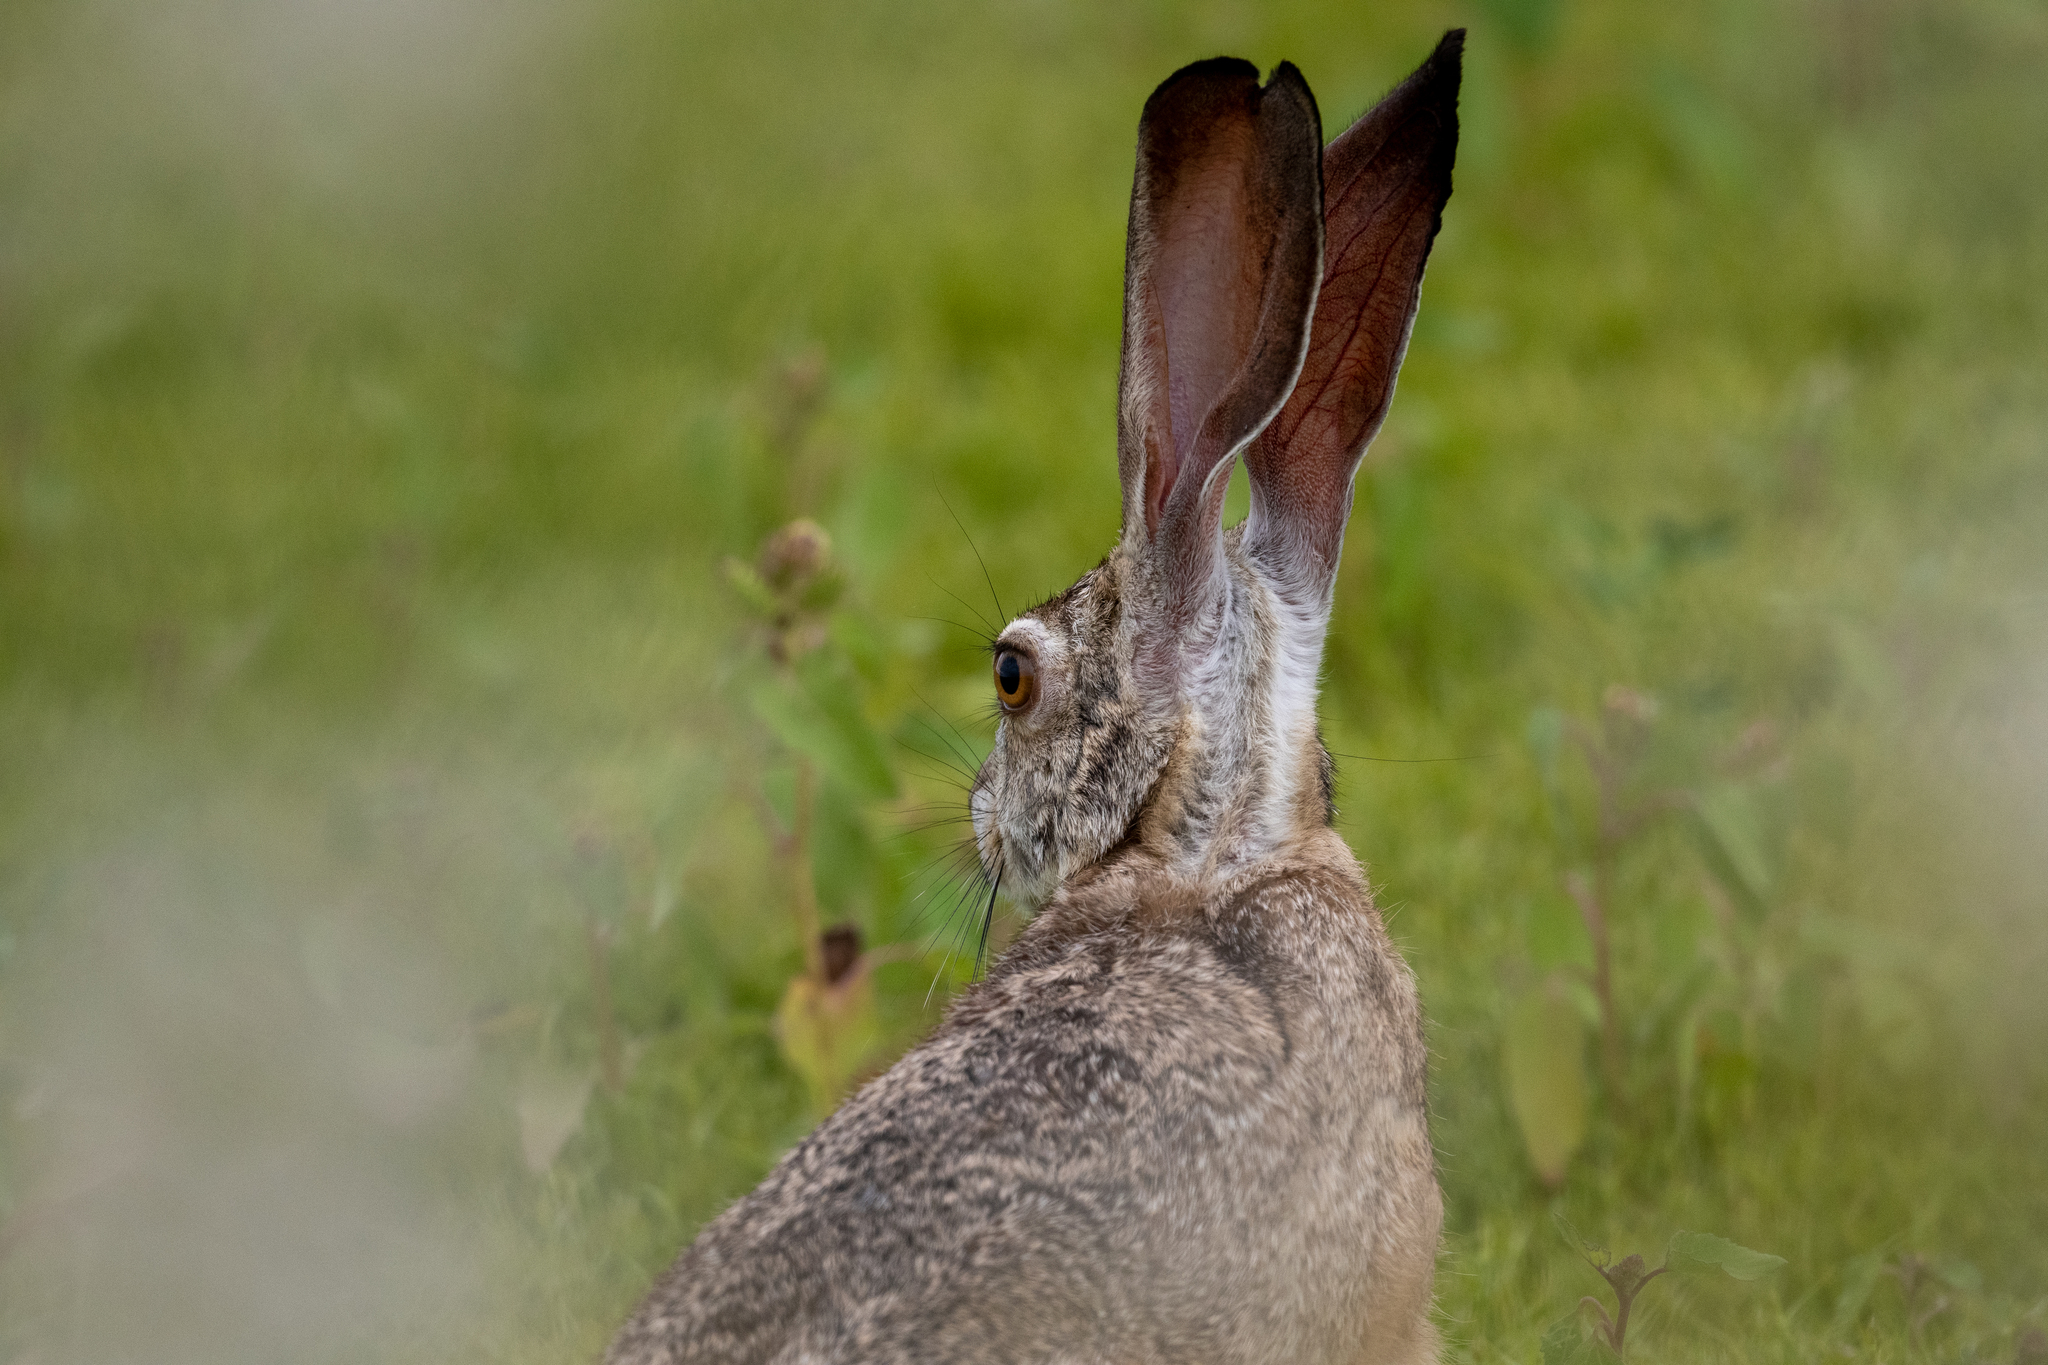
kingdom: Animalia
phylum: Chordata
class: Mammalia
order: Lagomorpha
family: Leporidae
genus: Lepus
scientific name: Lepus californicus
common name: Black-tailed jackrabbit
